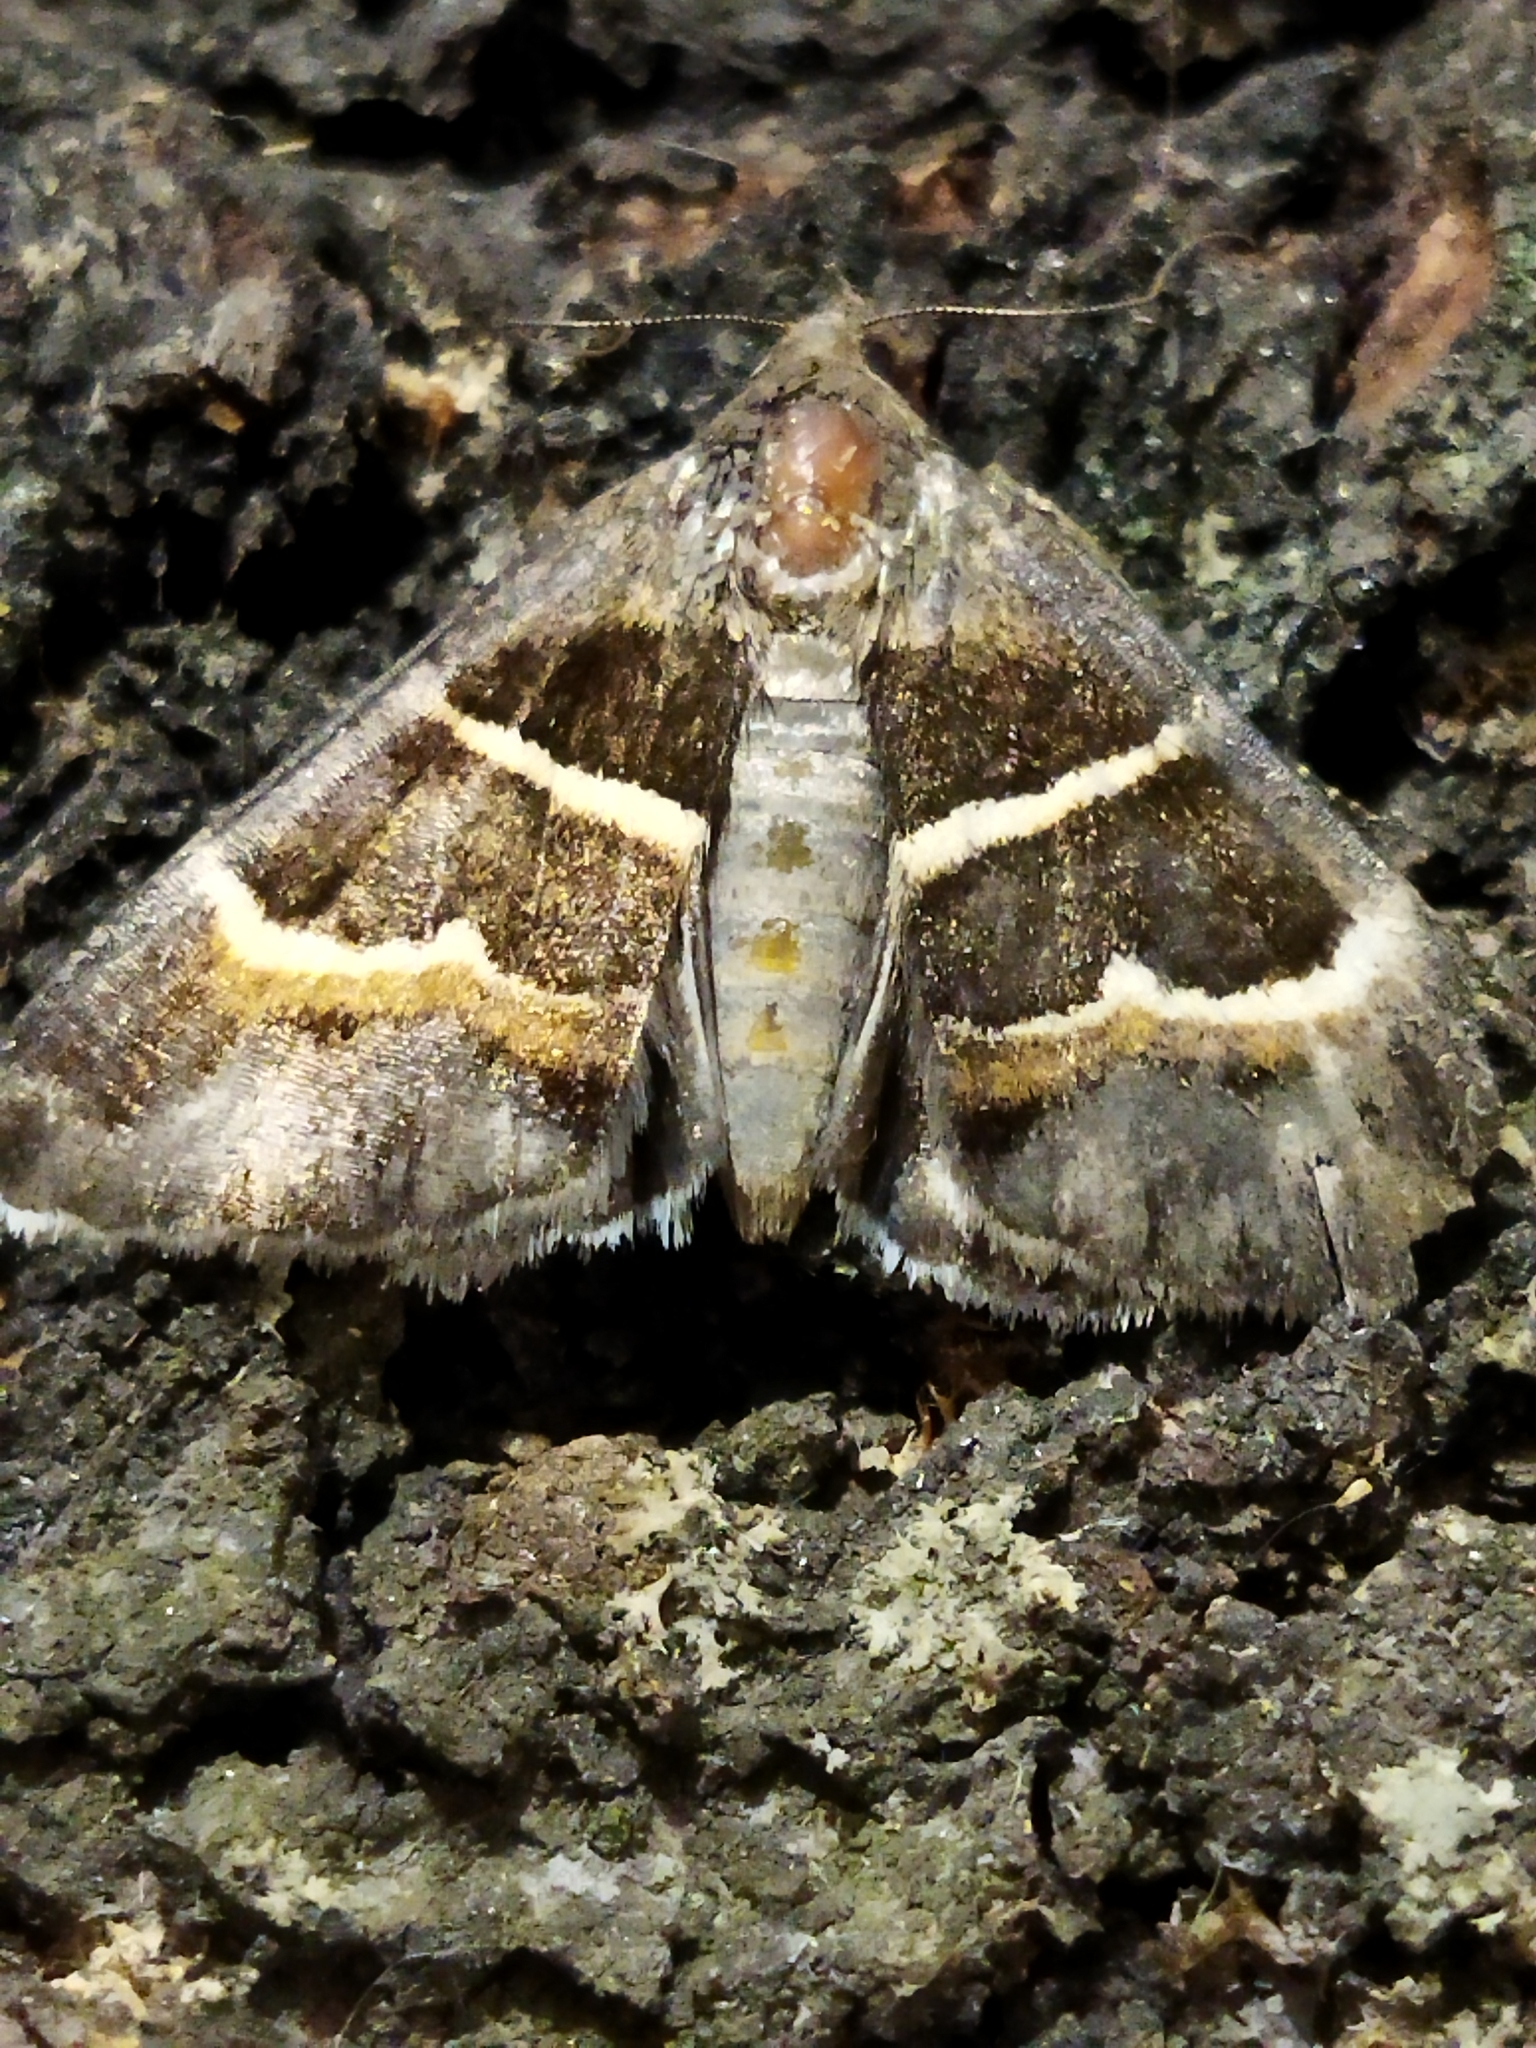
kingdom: Animalia
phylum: Arthropoda
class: Insecta
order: Lepidoptera
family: Erebidae
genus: Grammodes
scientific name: Grammodes stolida
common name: Geometrician
